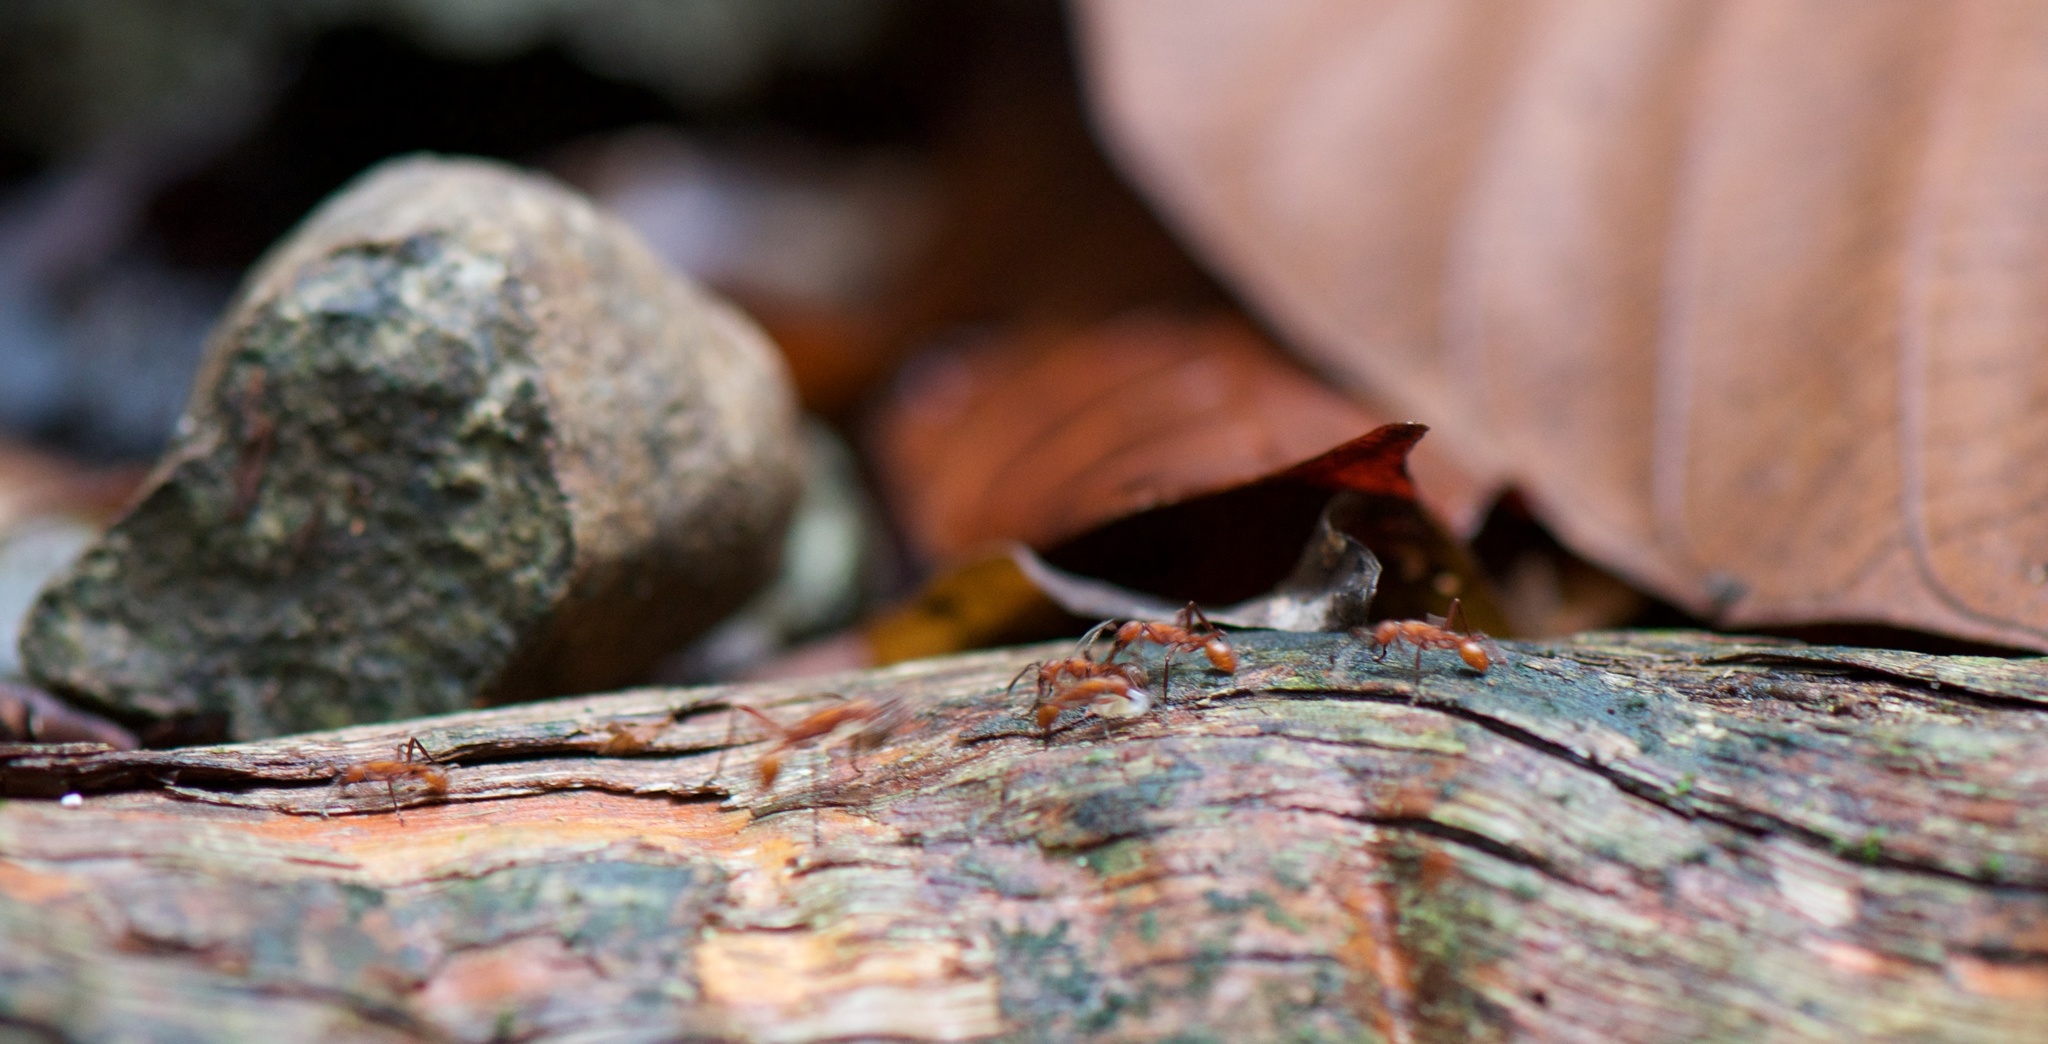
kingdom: Animalia
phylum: Arthropoda
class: Insecta
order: Hymenoptera
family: Formicidae
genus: Eciton
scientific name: Eciton hamatum
